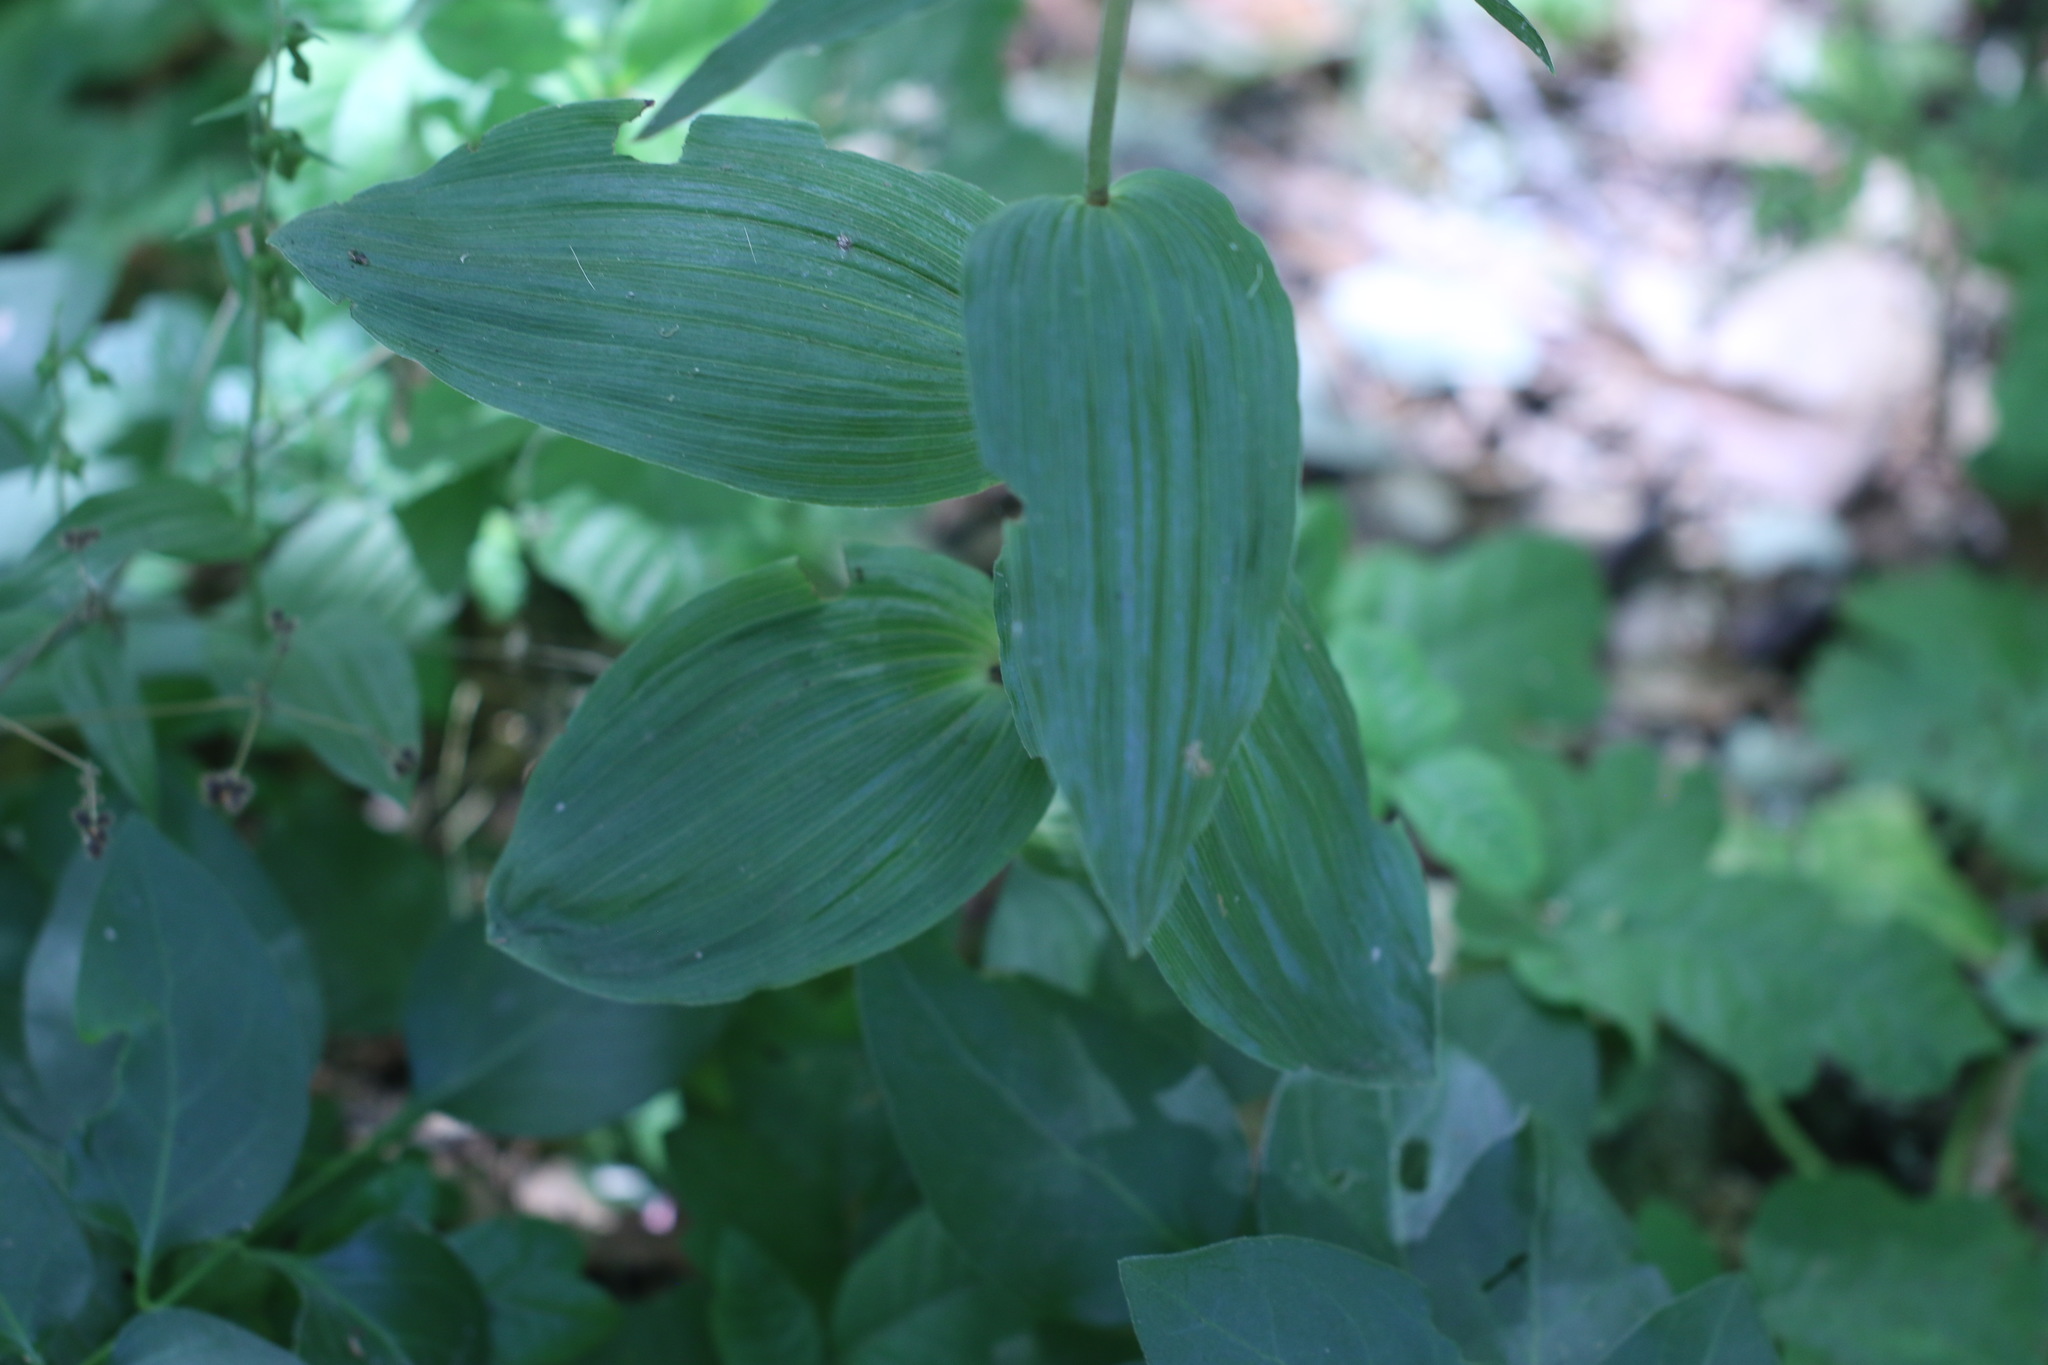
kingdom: Plantae
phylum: Tracheophyta
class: Liliopsida
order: Asparagales
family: Orchidaceae
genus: Epipactis
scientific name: Epipactis helleborine
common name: Broad-leaved helleborine
